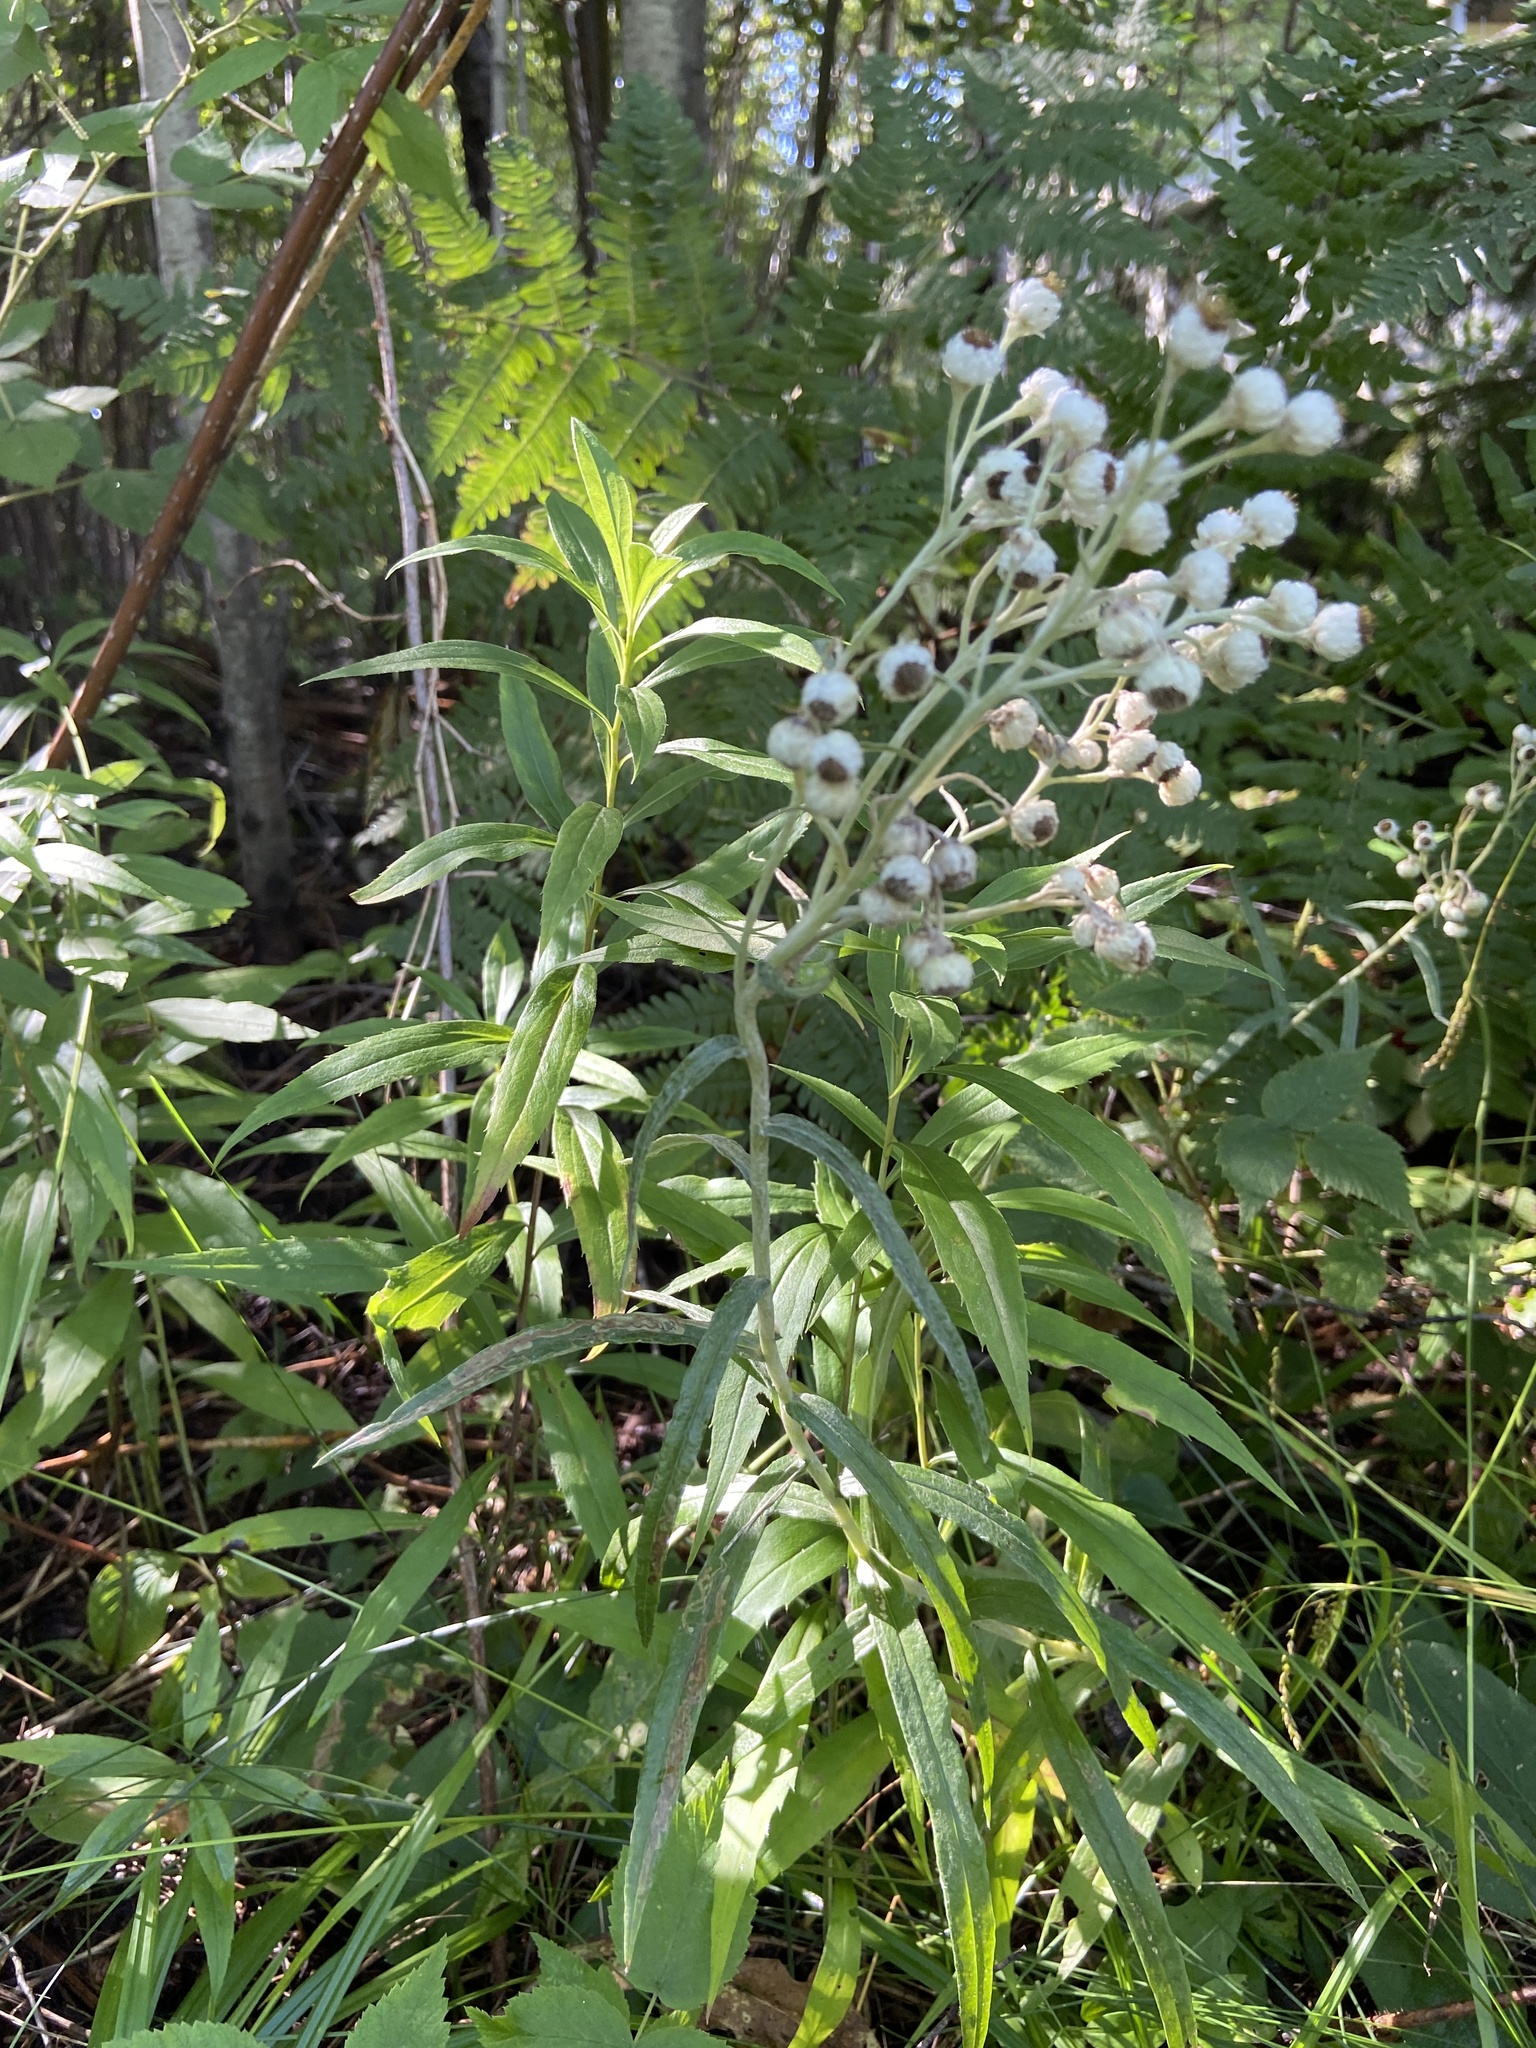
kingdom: Plantae
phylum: Tracheophyta
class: Magnoliopsida
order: Asterales
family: Asteraceae
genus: Anaphalis
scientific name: Anaphalis margaritacea
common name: Pearly everlasting
